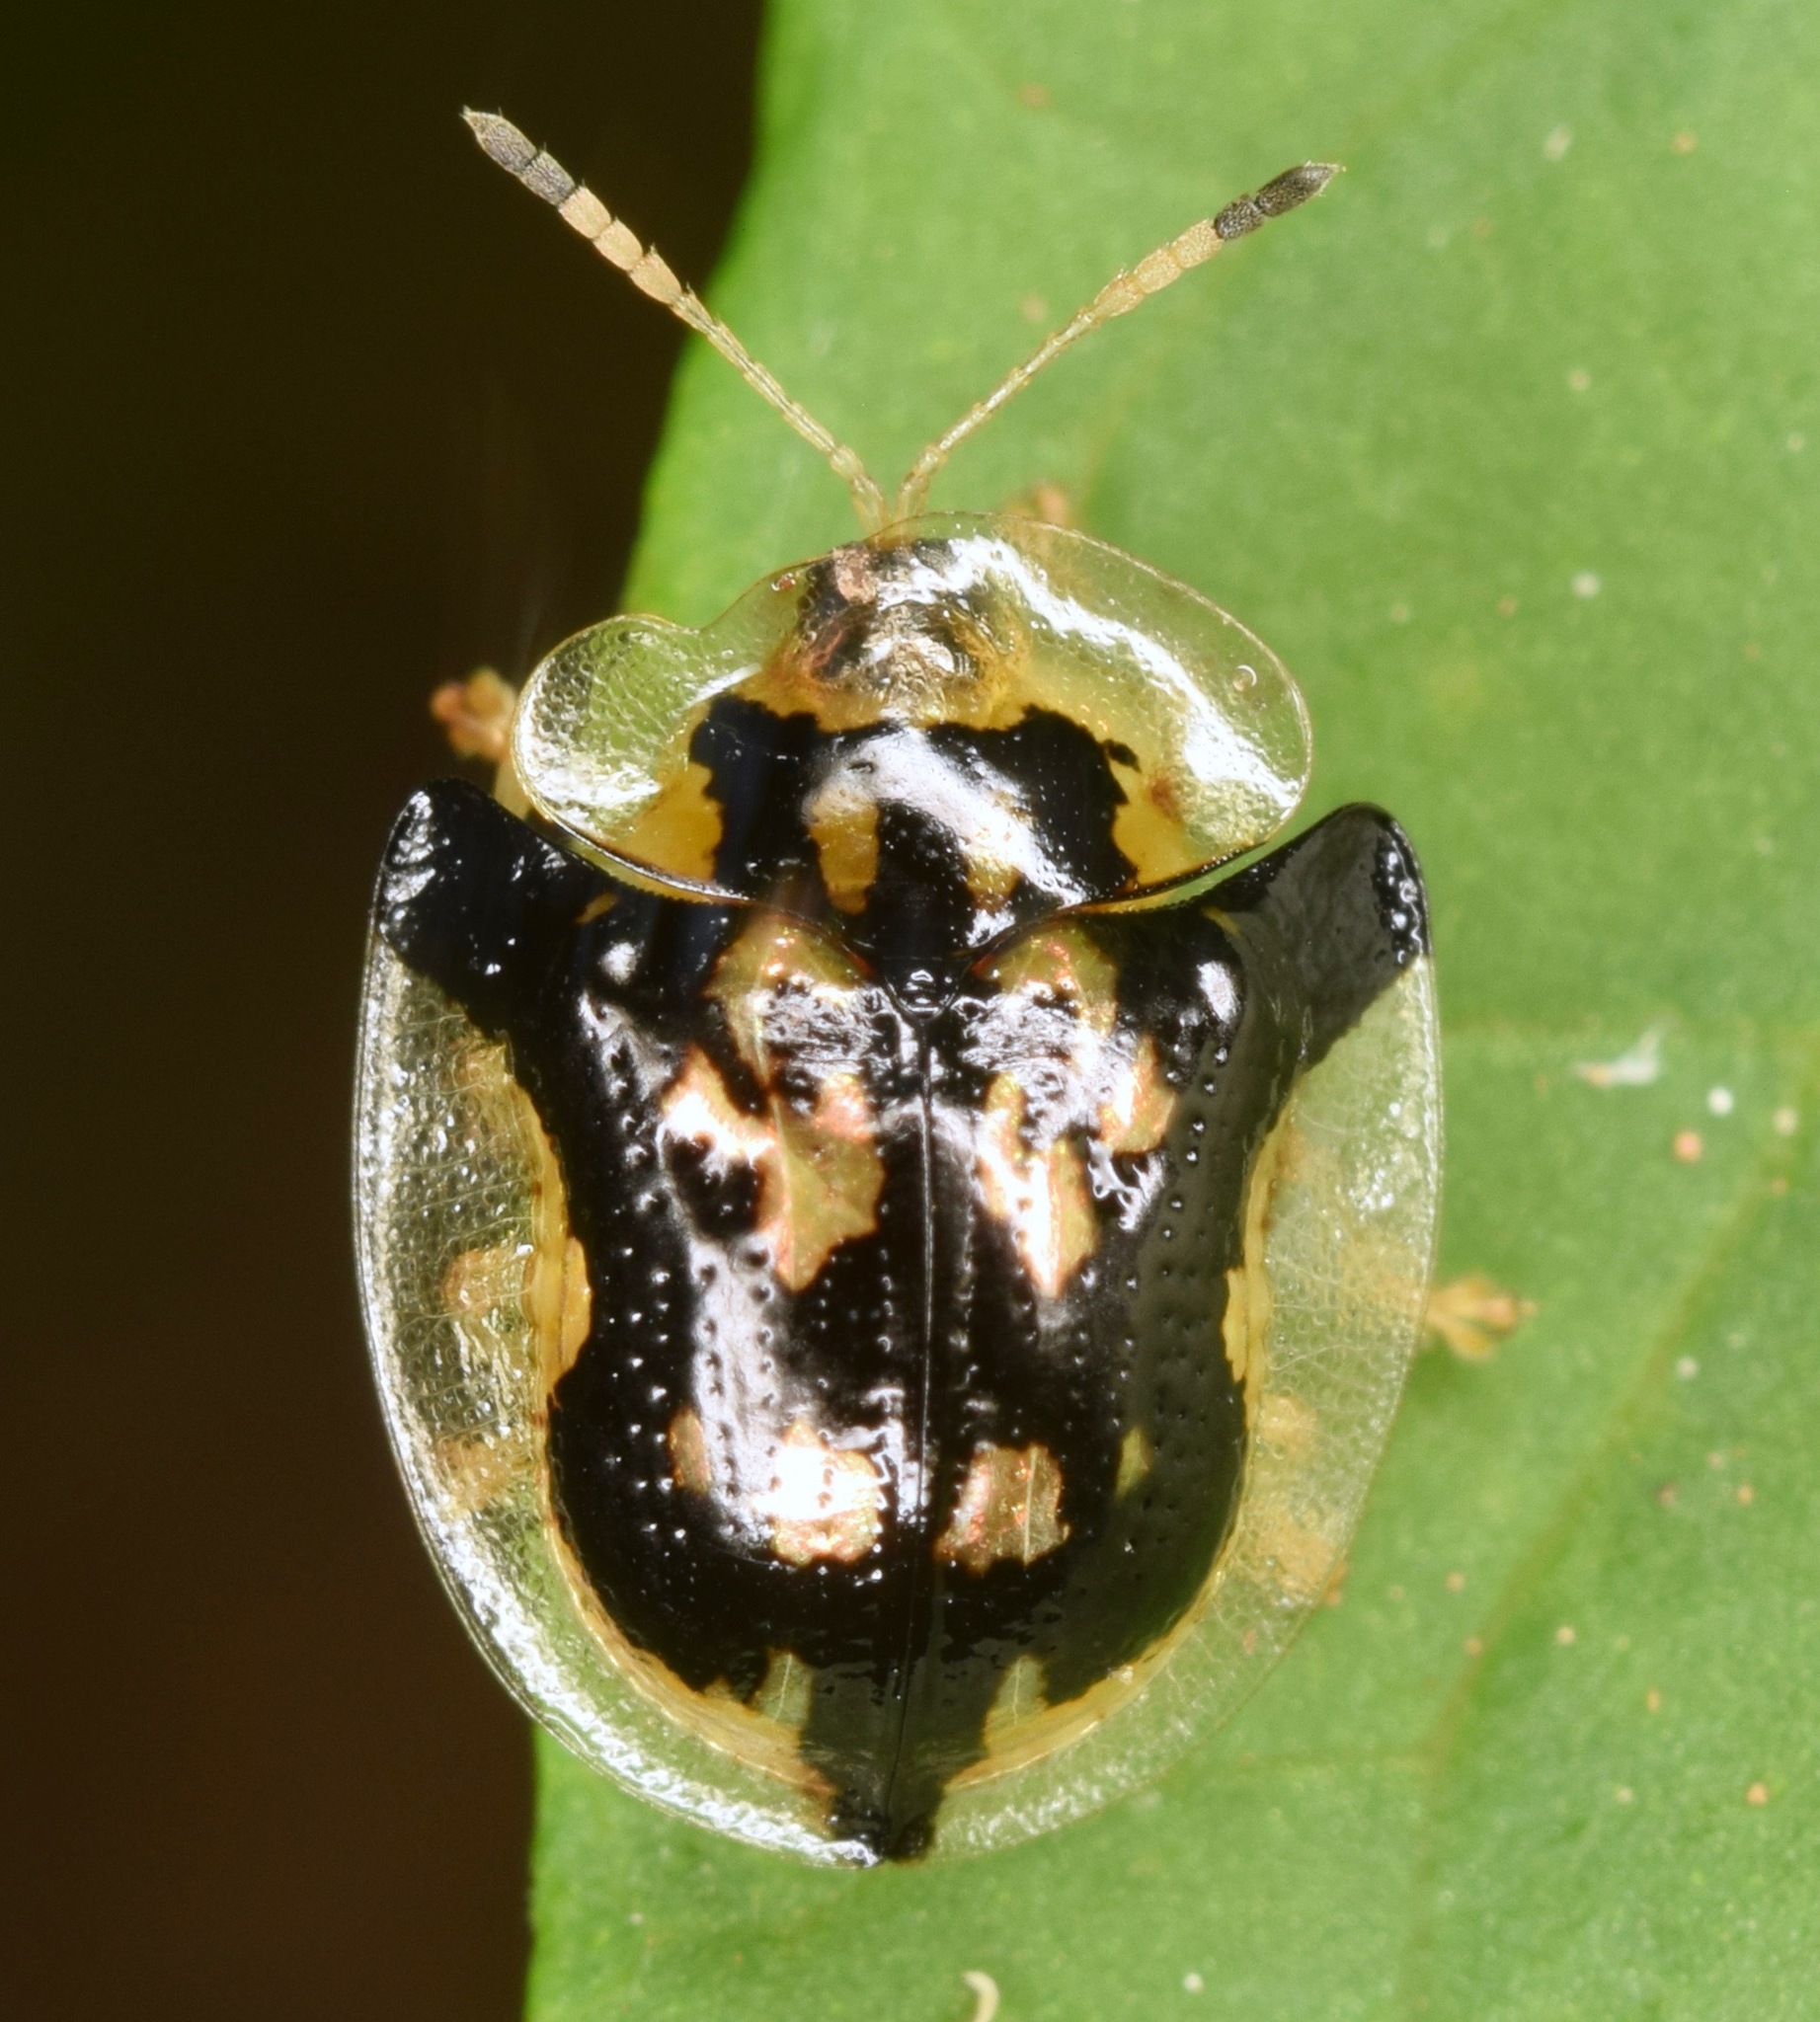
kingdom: Animalia
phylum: Arthropoda
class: Insecta
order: Coleoptera
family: Chrysomelidae
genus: Deloyala
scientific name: Deloyala guttata
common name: Mottled tortoise beetle
